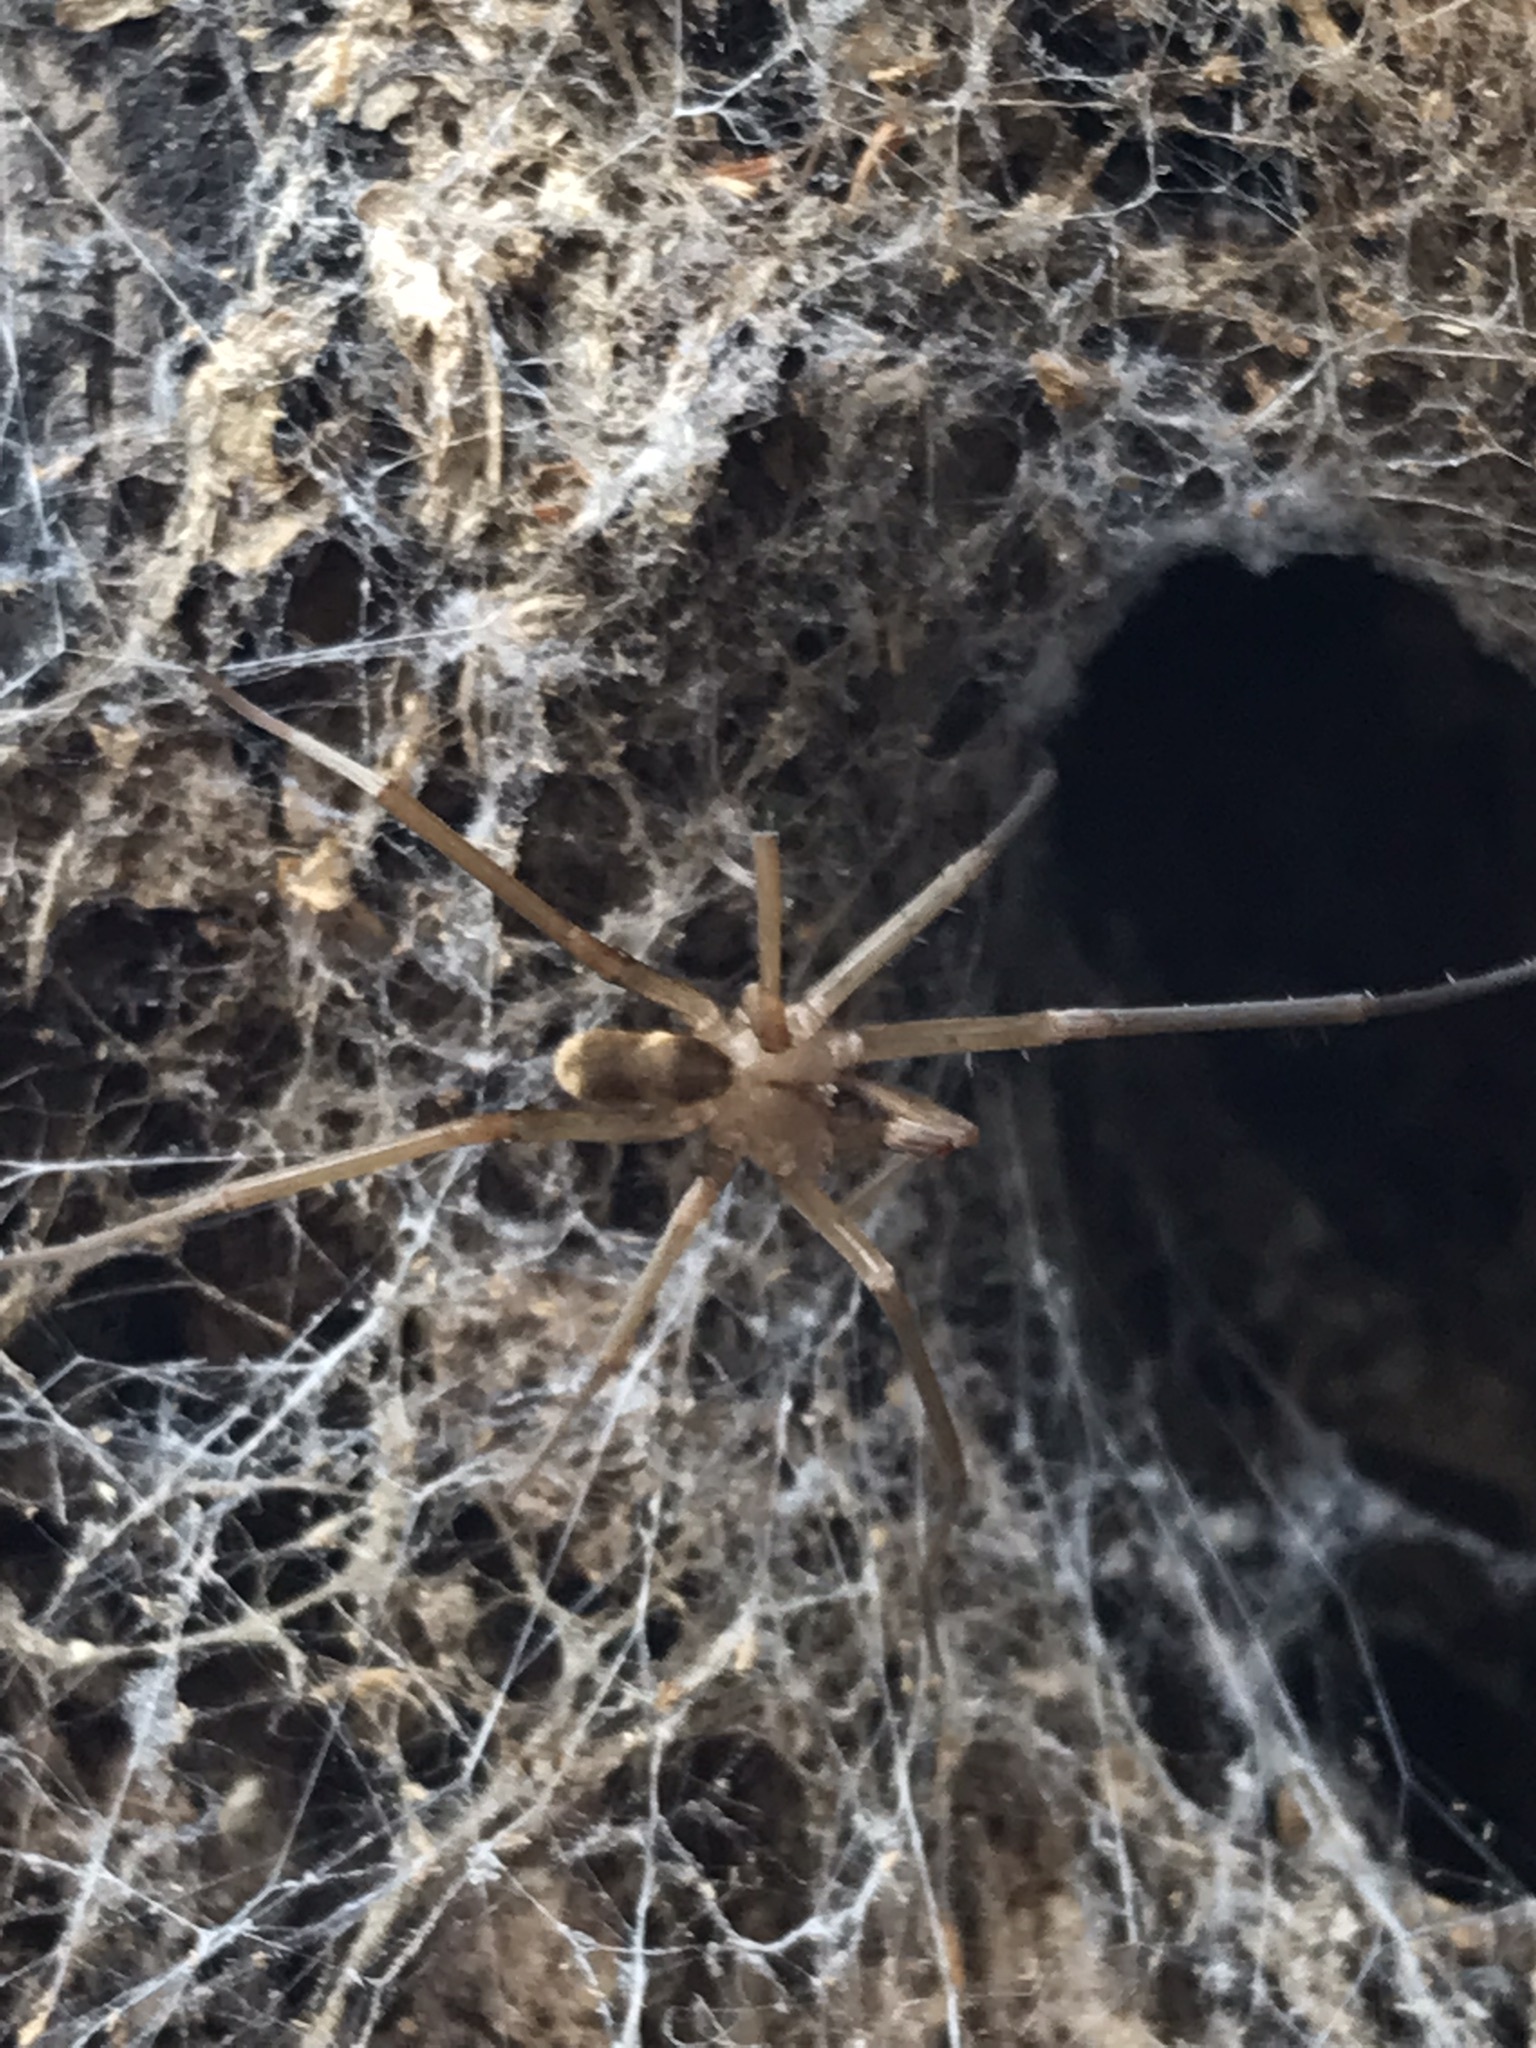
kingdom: Animalia
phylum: Arthropoda
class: Arachnida
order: Araneae
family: Filistatidae
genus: Kukulcania
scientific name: Kukulcania hibernalis
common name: Crevice weaver
